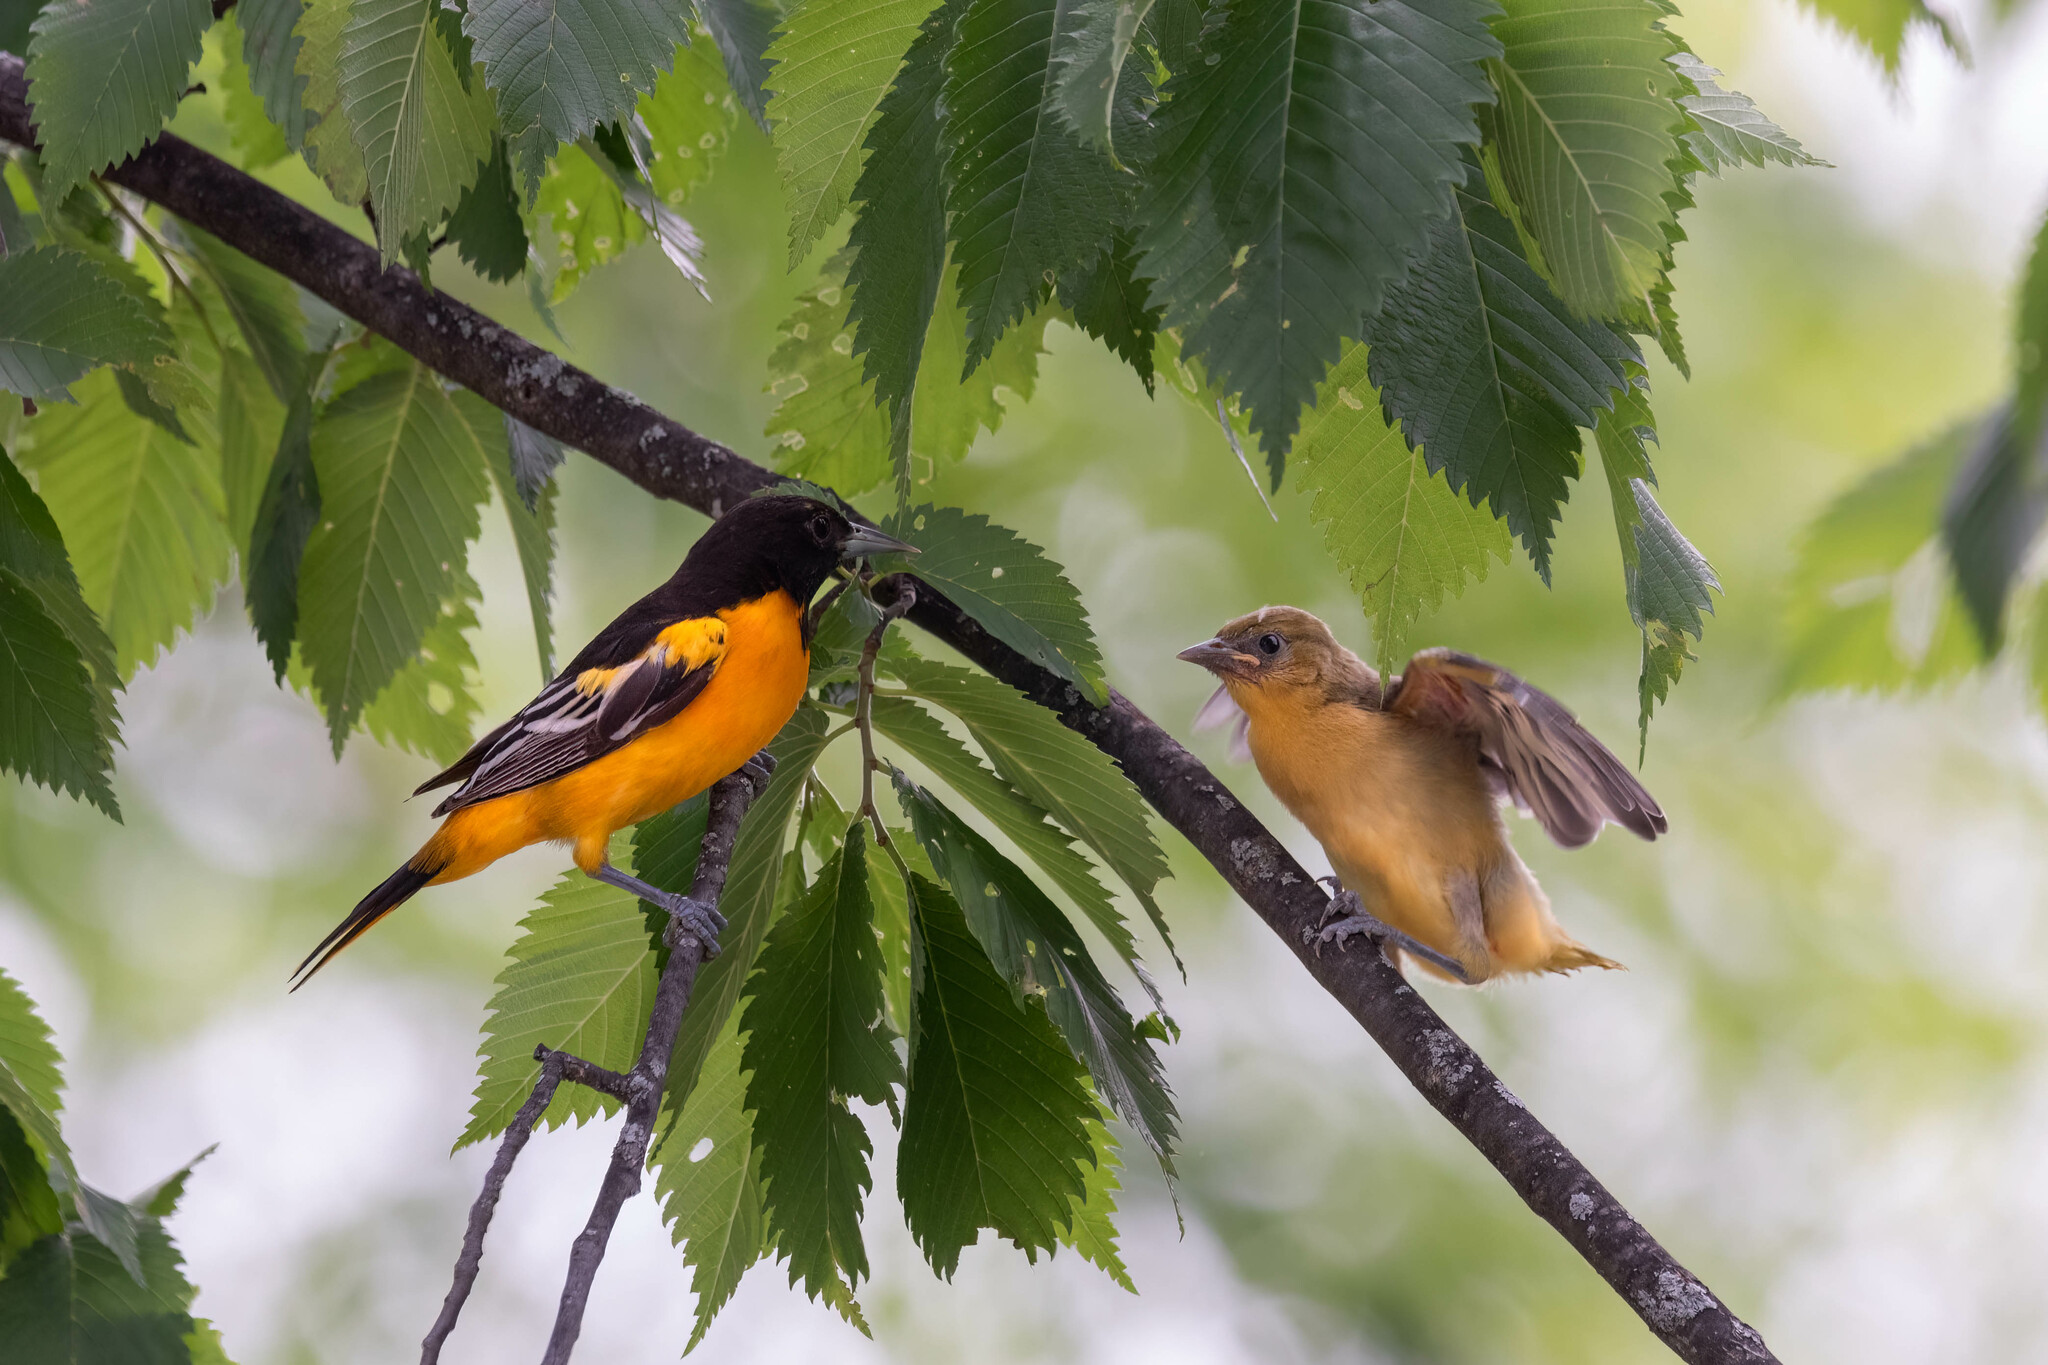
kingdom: Animalia
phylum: Chordata
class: Aves
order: Passeriformes
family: Icteridae
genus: Icterus
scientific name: Icterus galbula
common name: Baltimore oriole
